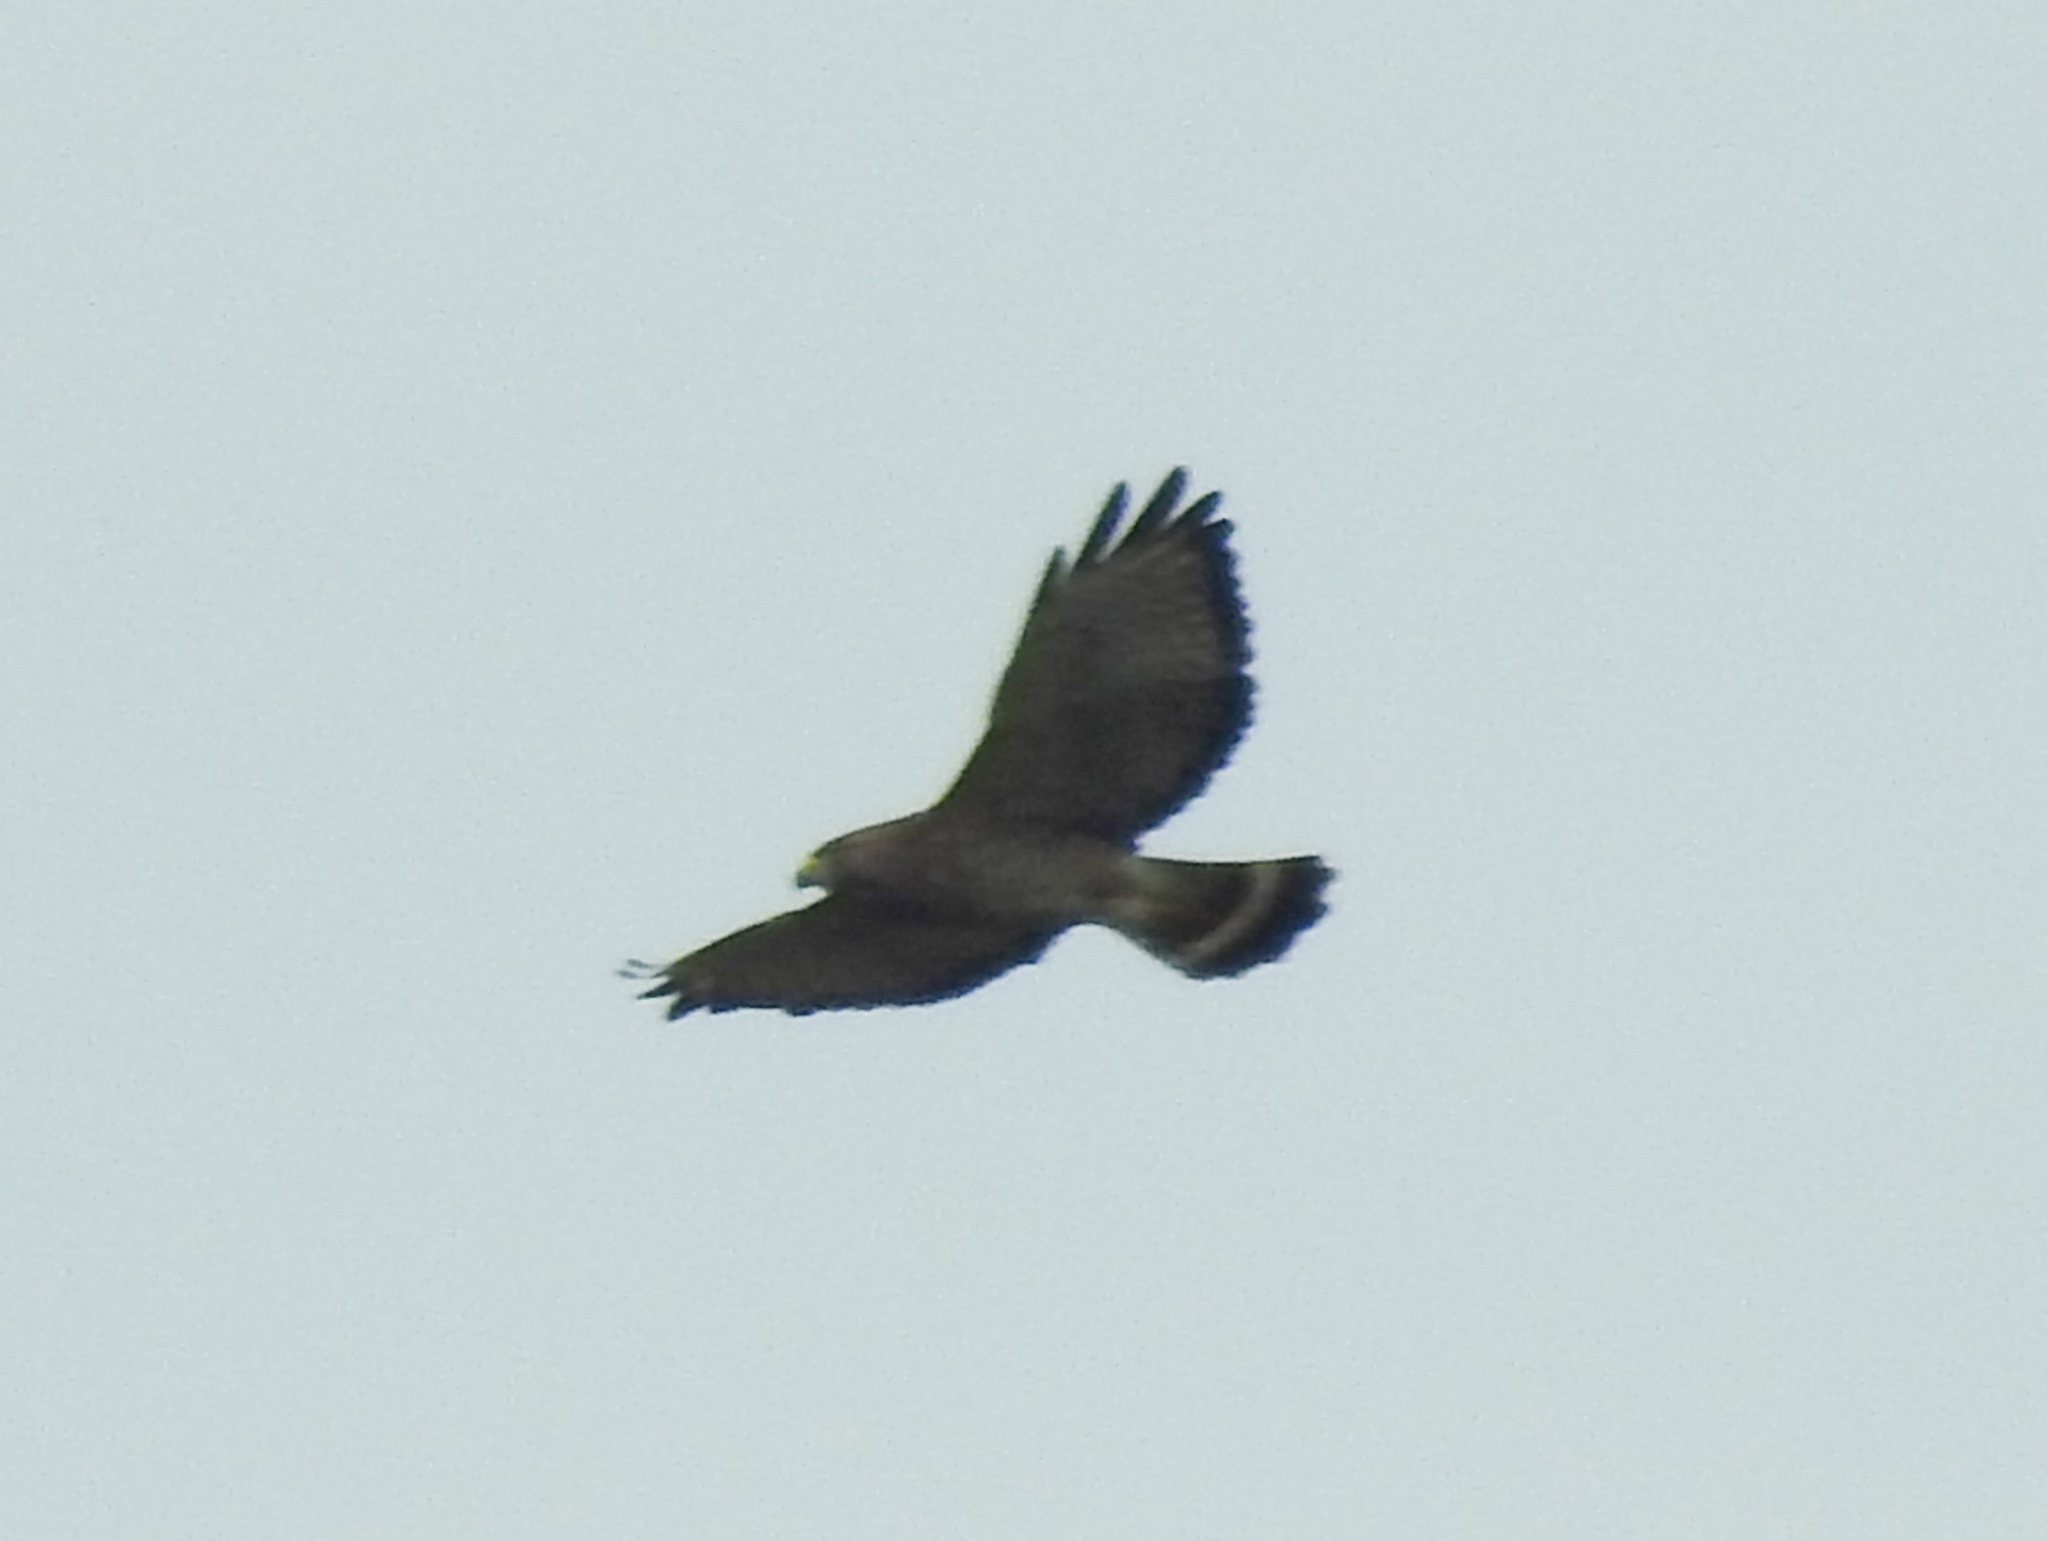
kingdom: Animalia
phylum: Chordata
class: Aves
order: Accipitriformes
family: Accipitridae
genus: Buteo
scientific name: Buteo platypterus
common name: Broad-winged hawk
